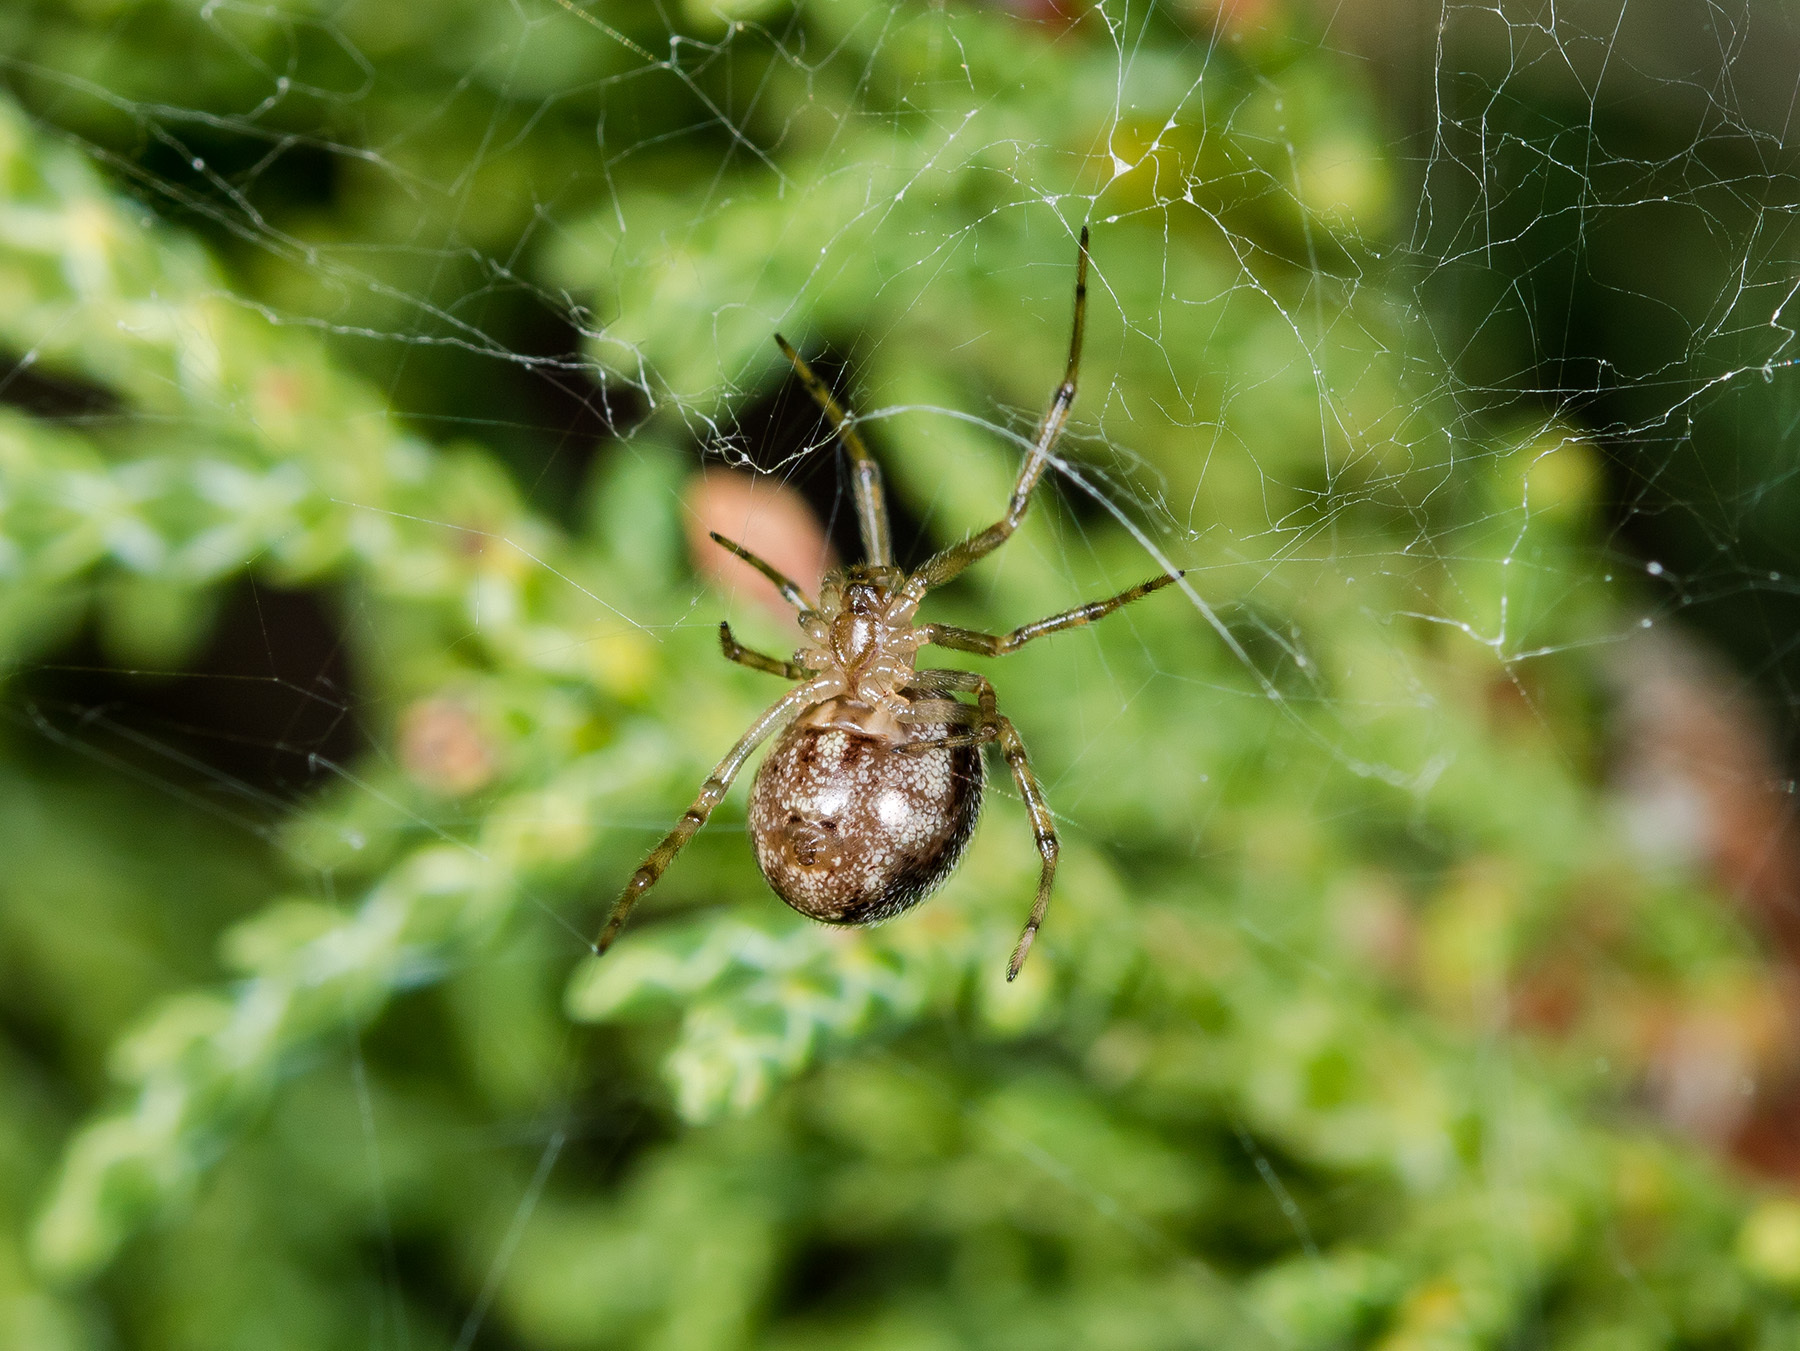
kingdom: Animalia
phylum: Arthropoda
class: Arachnida
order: Araneae
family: Theridiidae
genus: Steatoda
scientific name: Steatoda castanea
